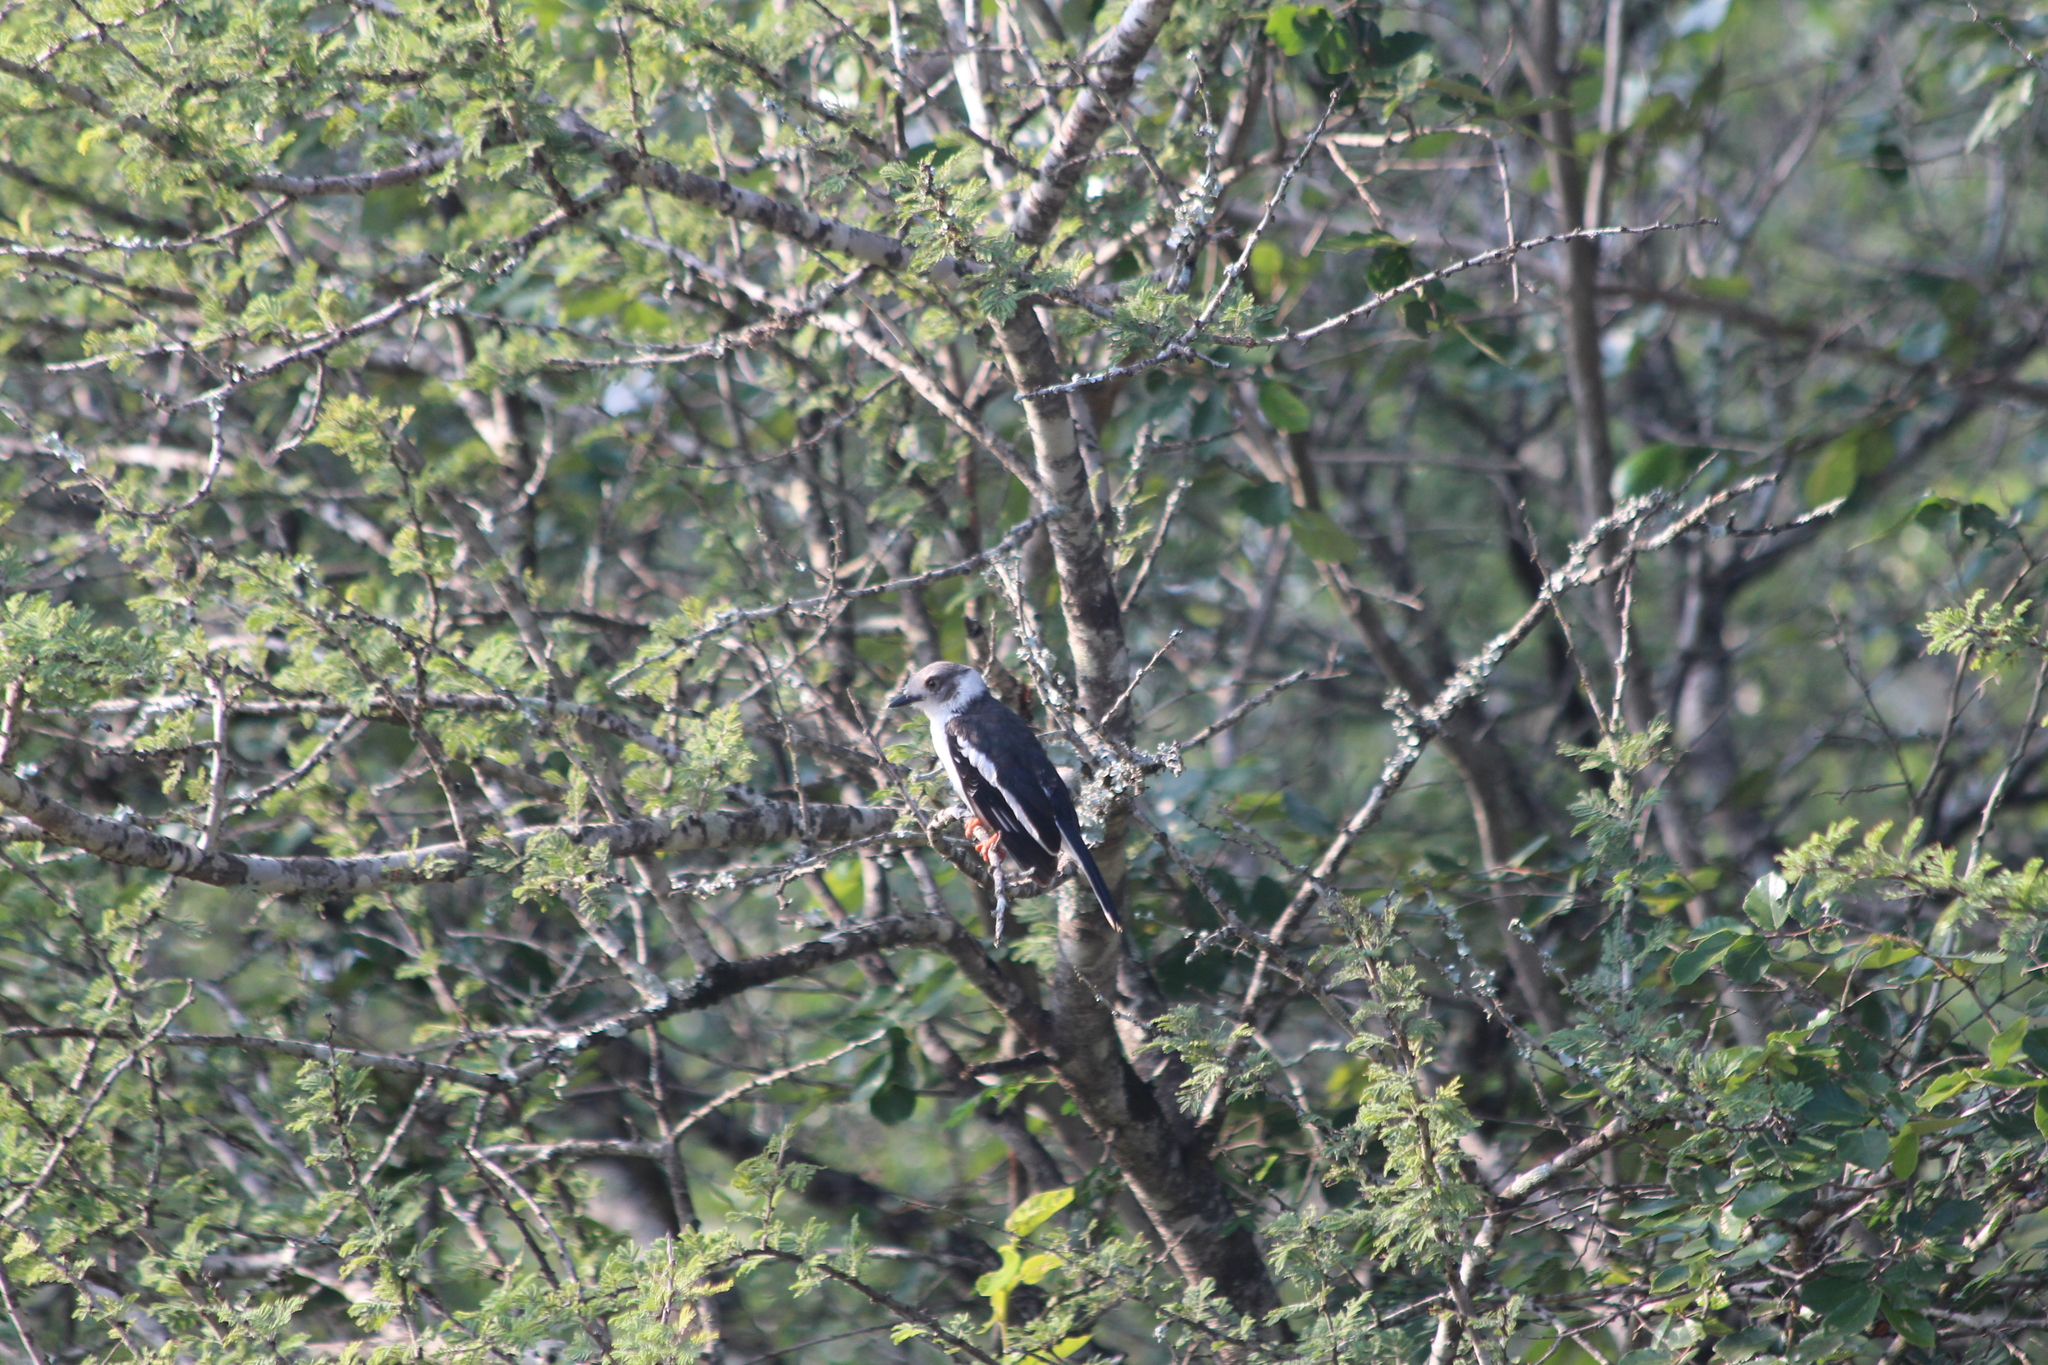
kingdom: Animalia
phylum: Chordata
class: Aves
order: Passeriformes
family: Prionopidae
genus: Prionops
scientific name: Prionops plumatus
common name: White-crested helmetshrike
